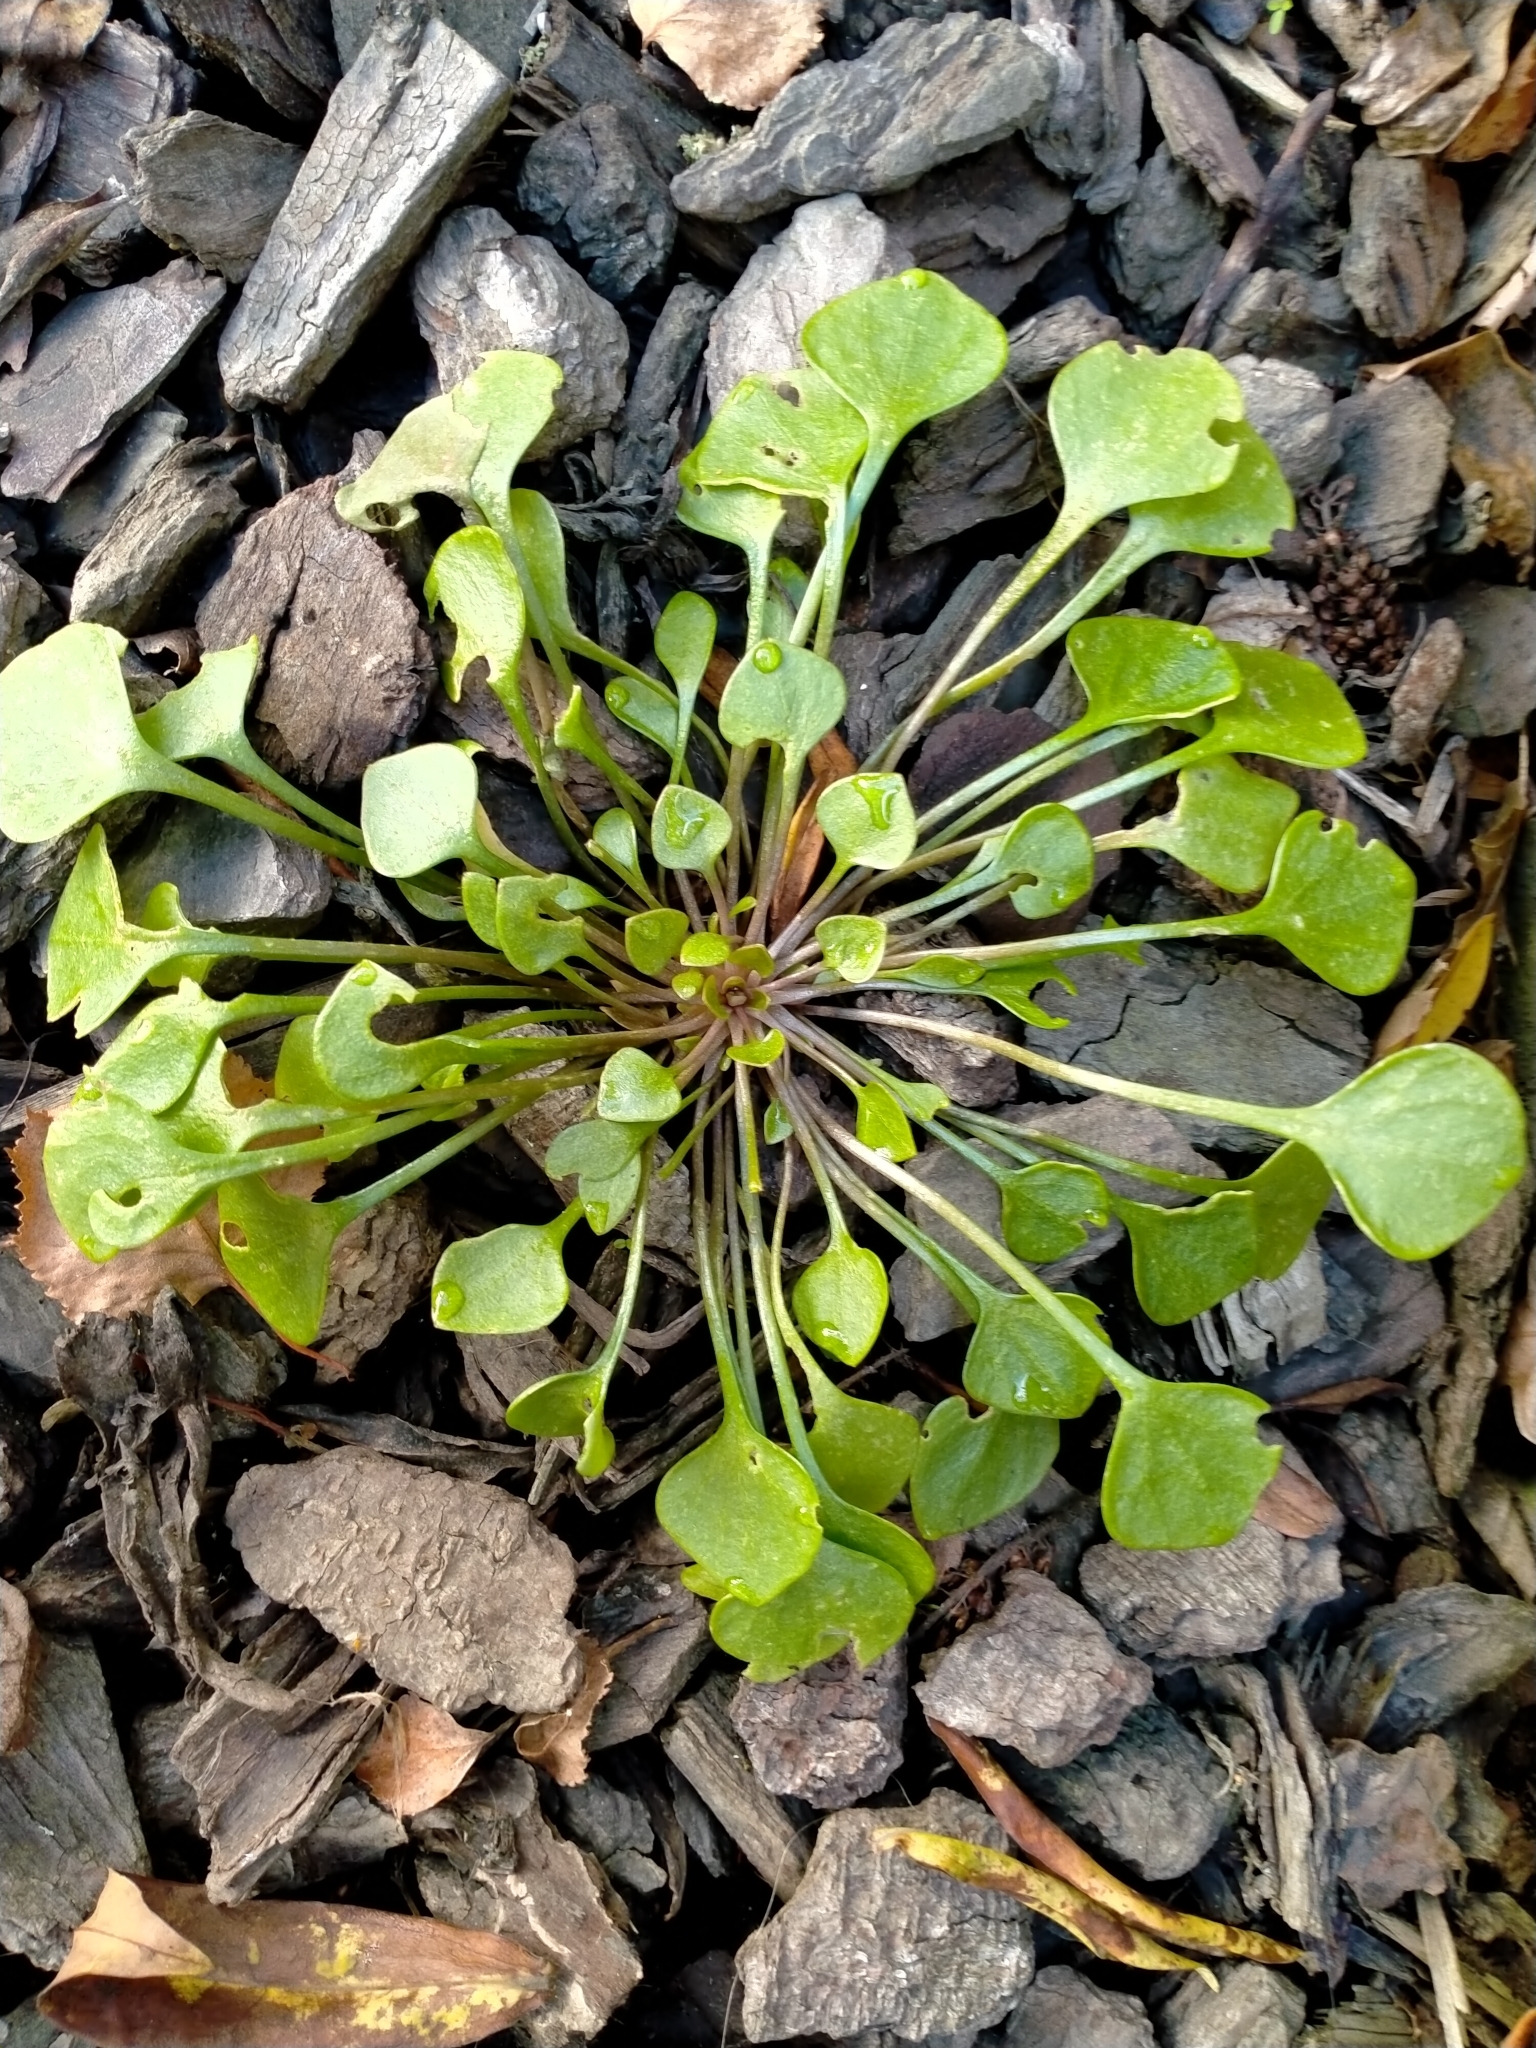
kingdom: Plantae
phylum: Tracheophyta
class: Magnoliopsida
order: Caryophyllales
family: Montiaceae
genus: Claytonia
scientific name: Claytonia perfoliata
